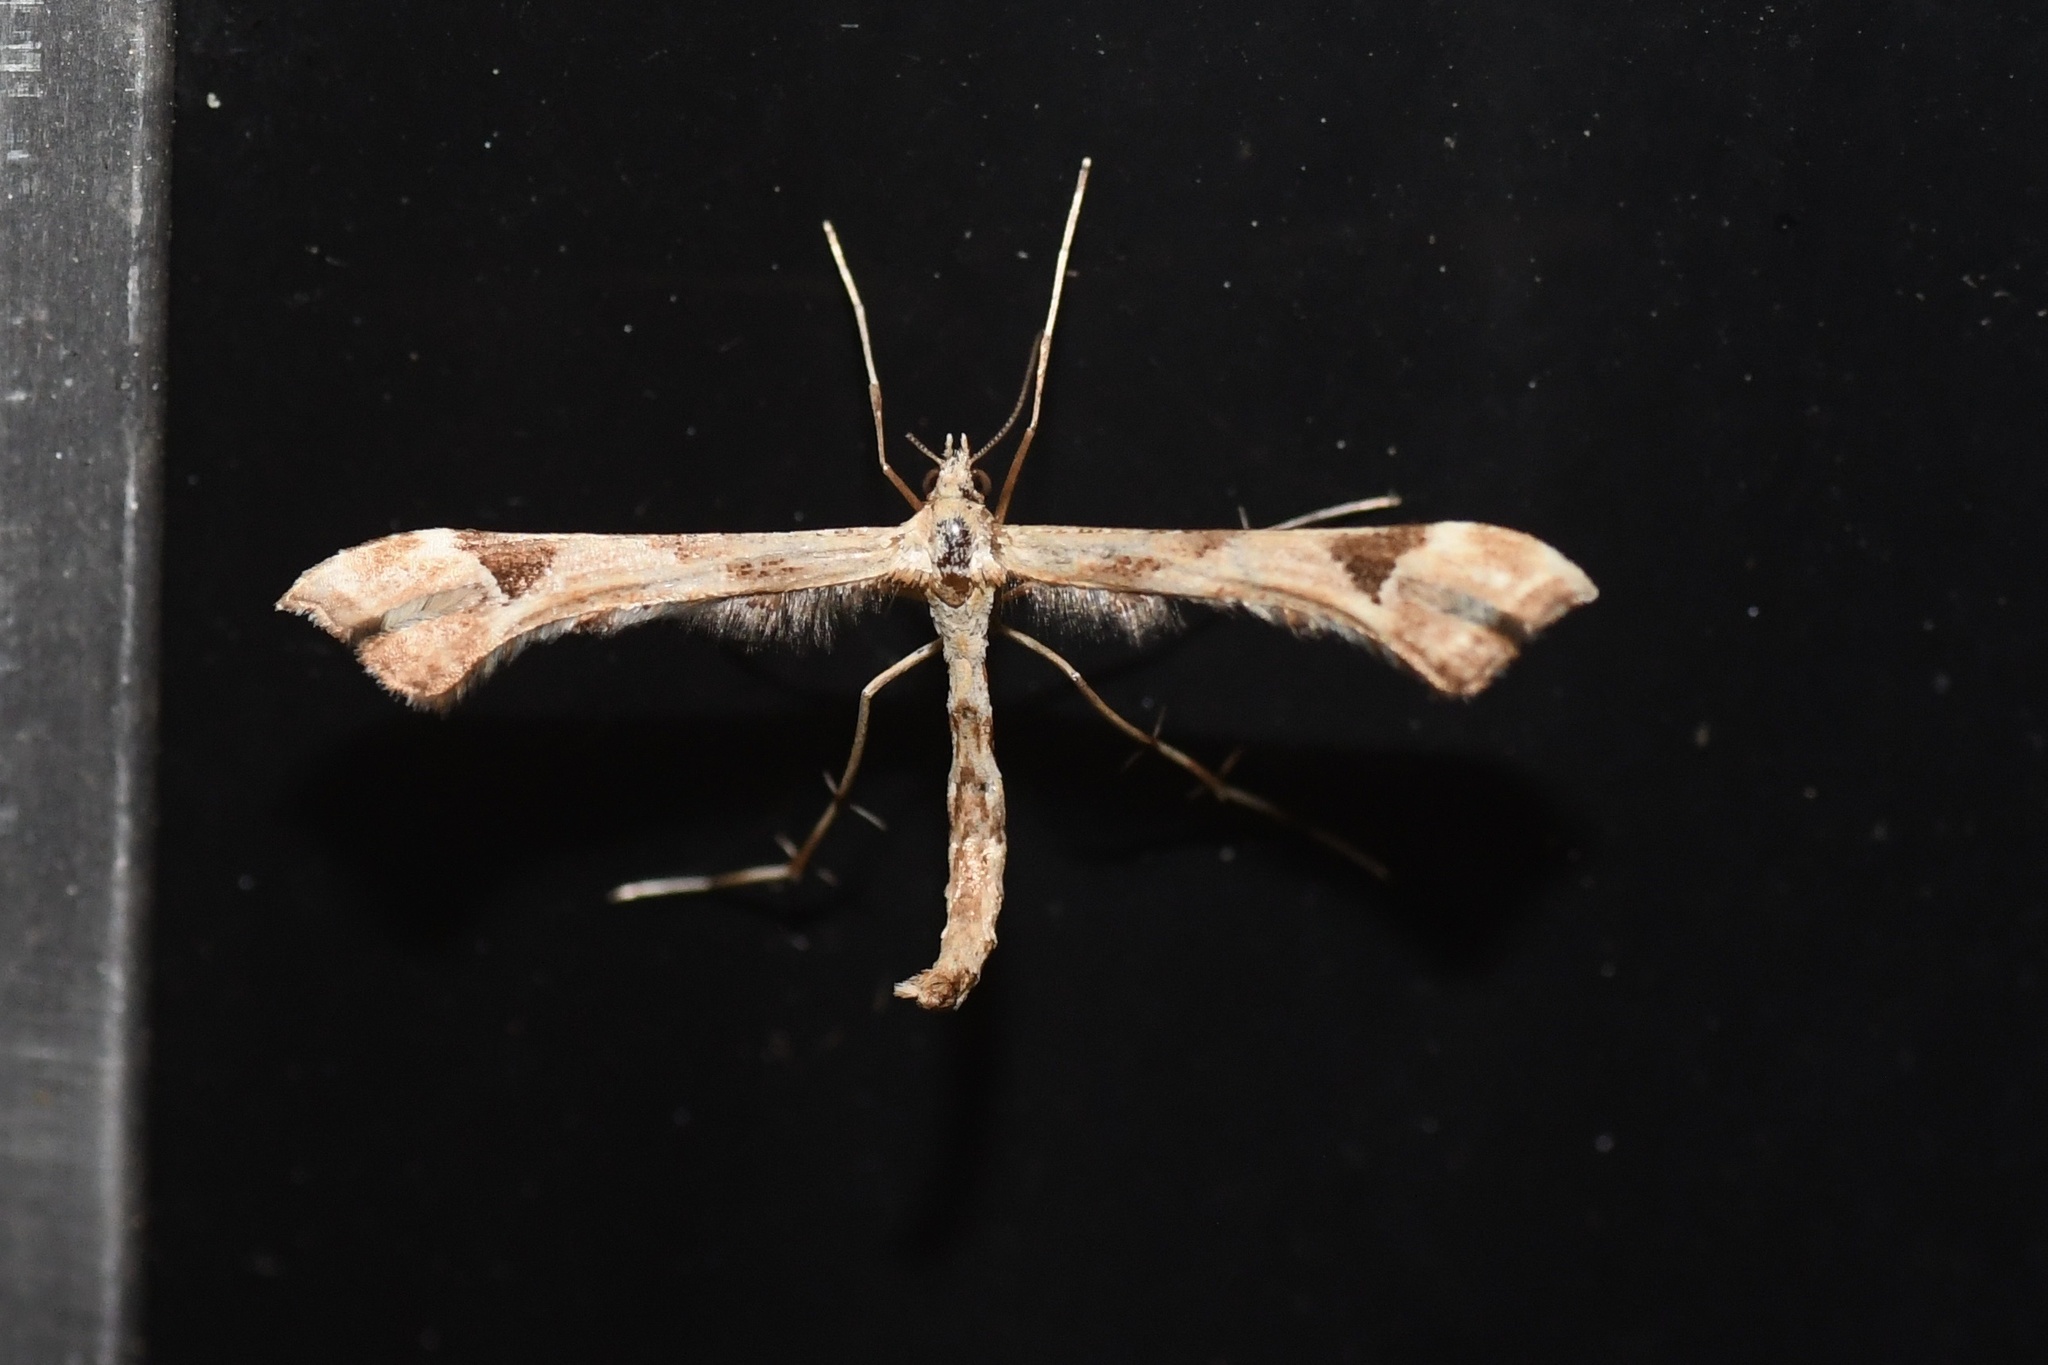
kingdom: Animalia
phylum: Arthropoda
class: Insecta
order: Lepidoptera
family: Pterophoridae
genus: Platyptilia
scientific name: Platyptilia carduidactylus
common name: Artichoke plume moth
